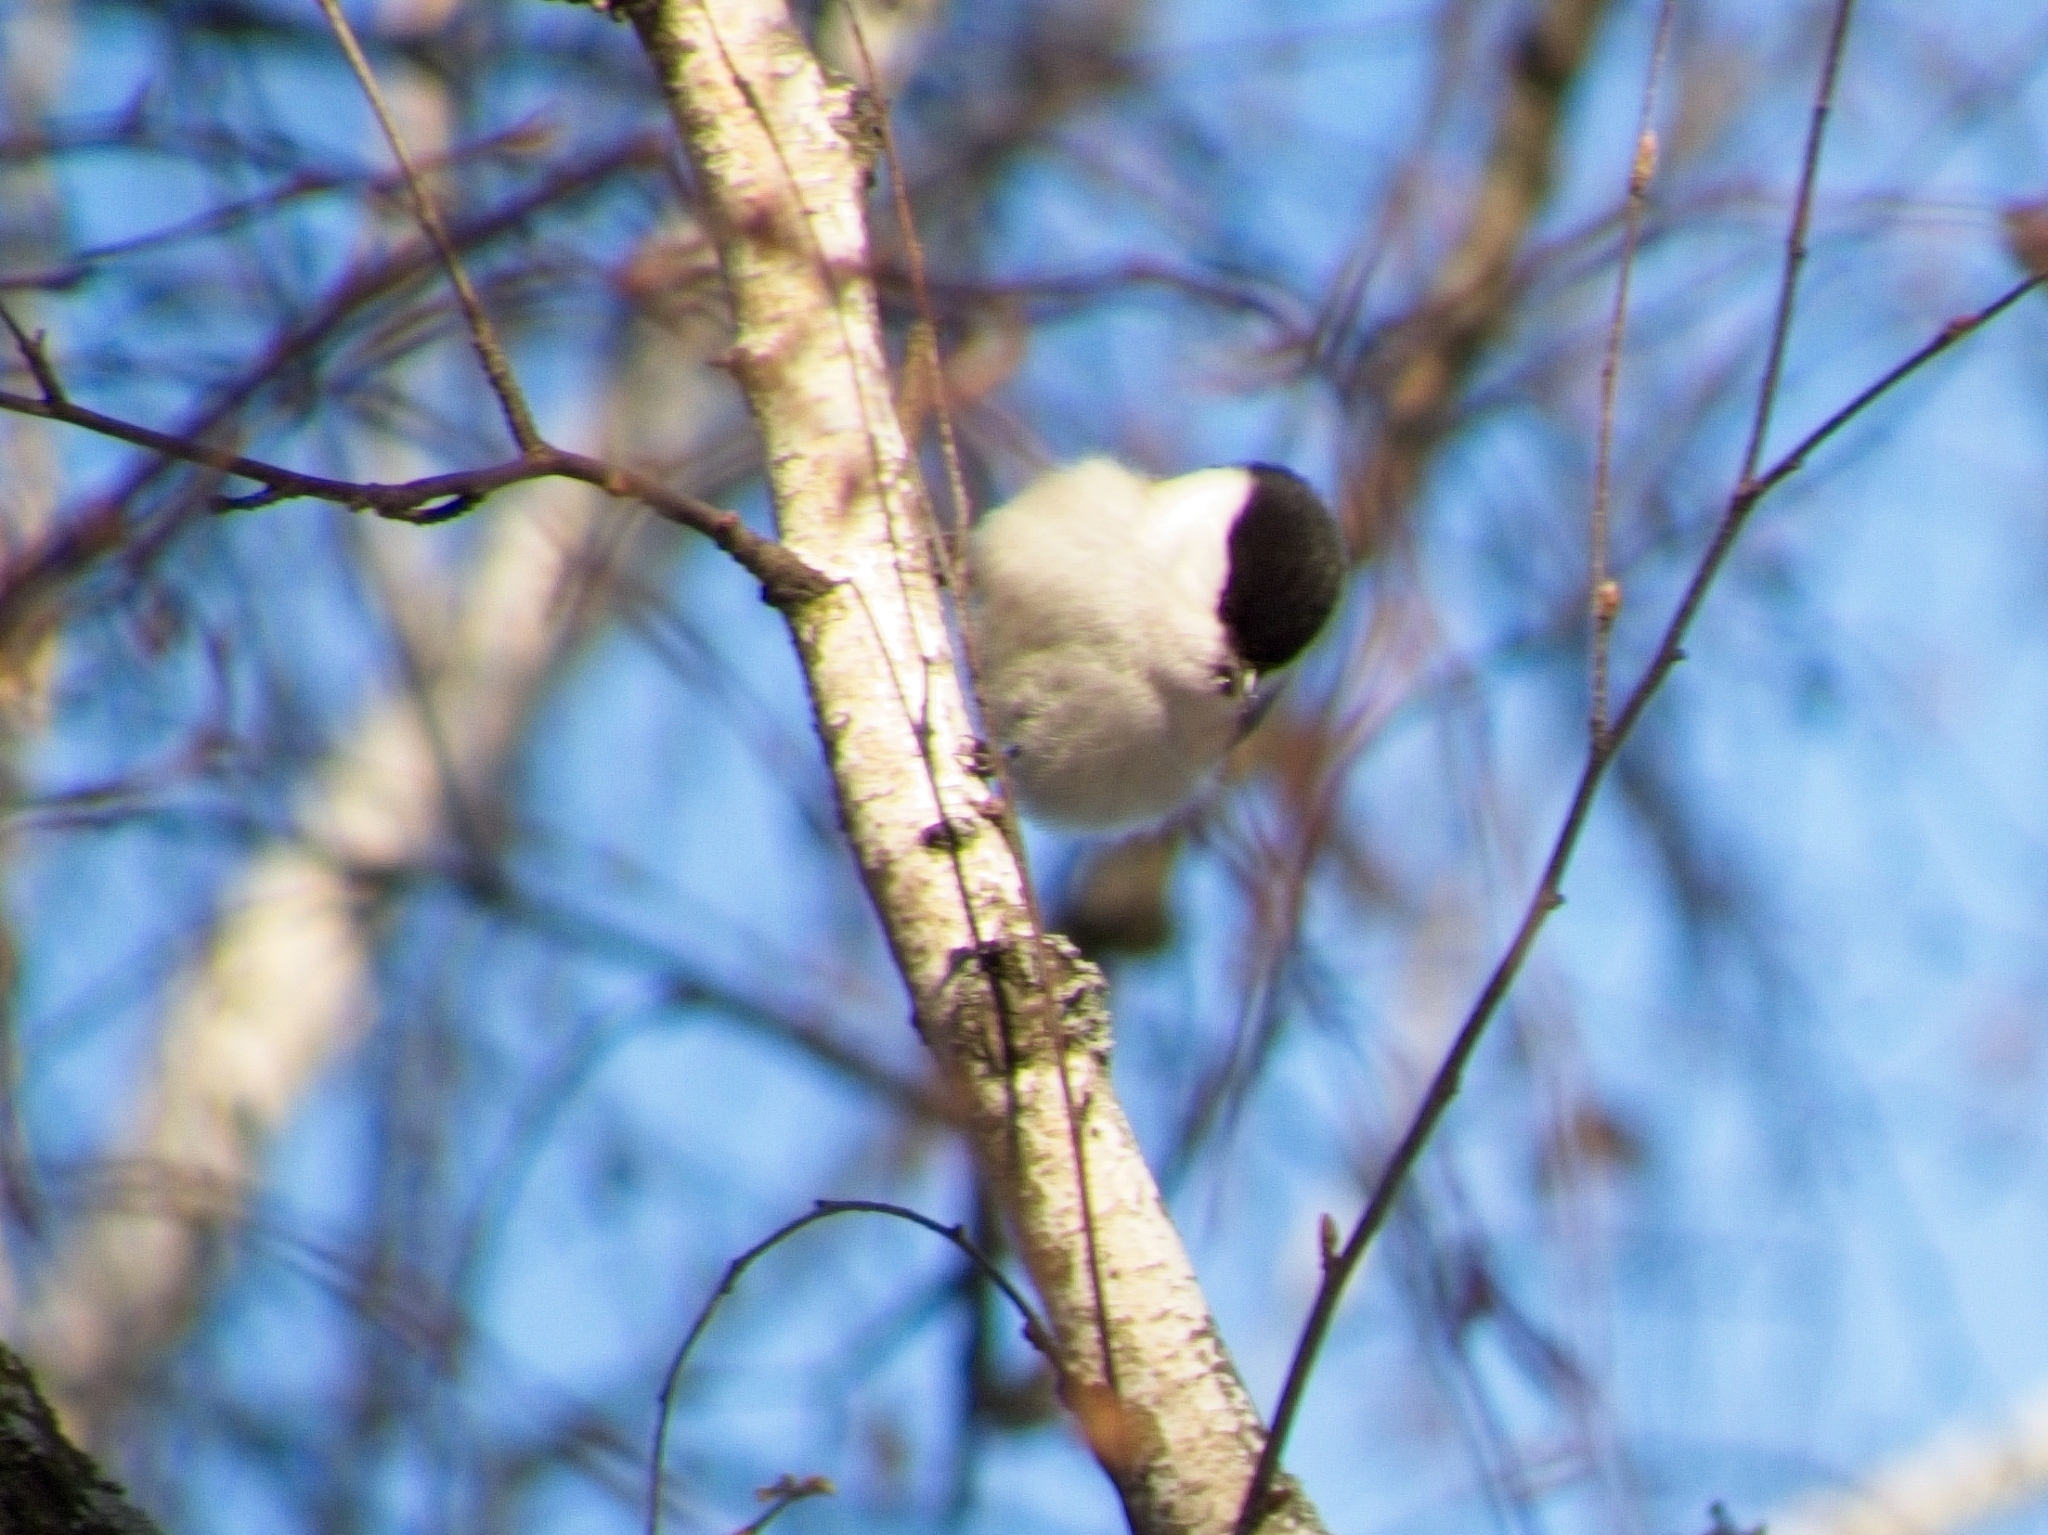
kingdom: Animalia
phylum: Chordata
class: Aves
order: Passeriformes
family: Paridae
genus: Poecile
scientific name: Poecile montanus
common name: Willow tit
